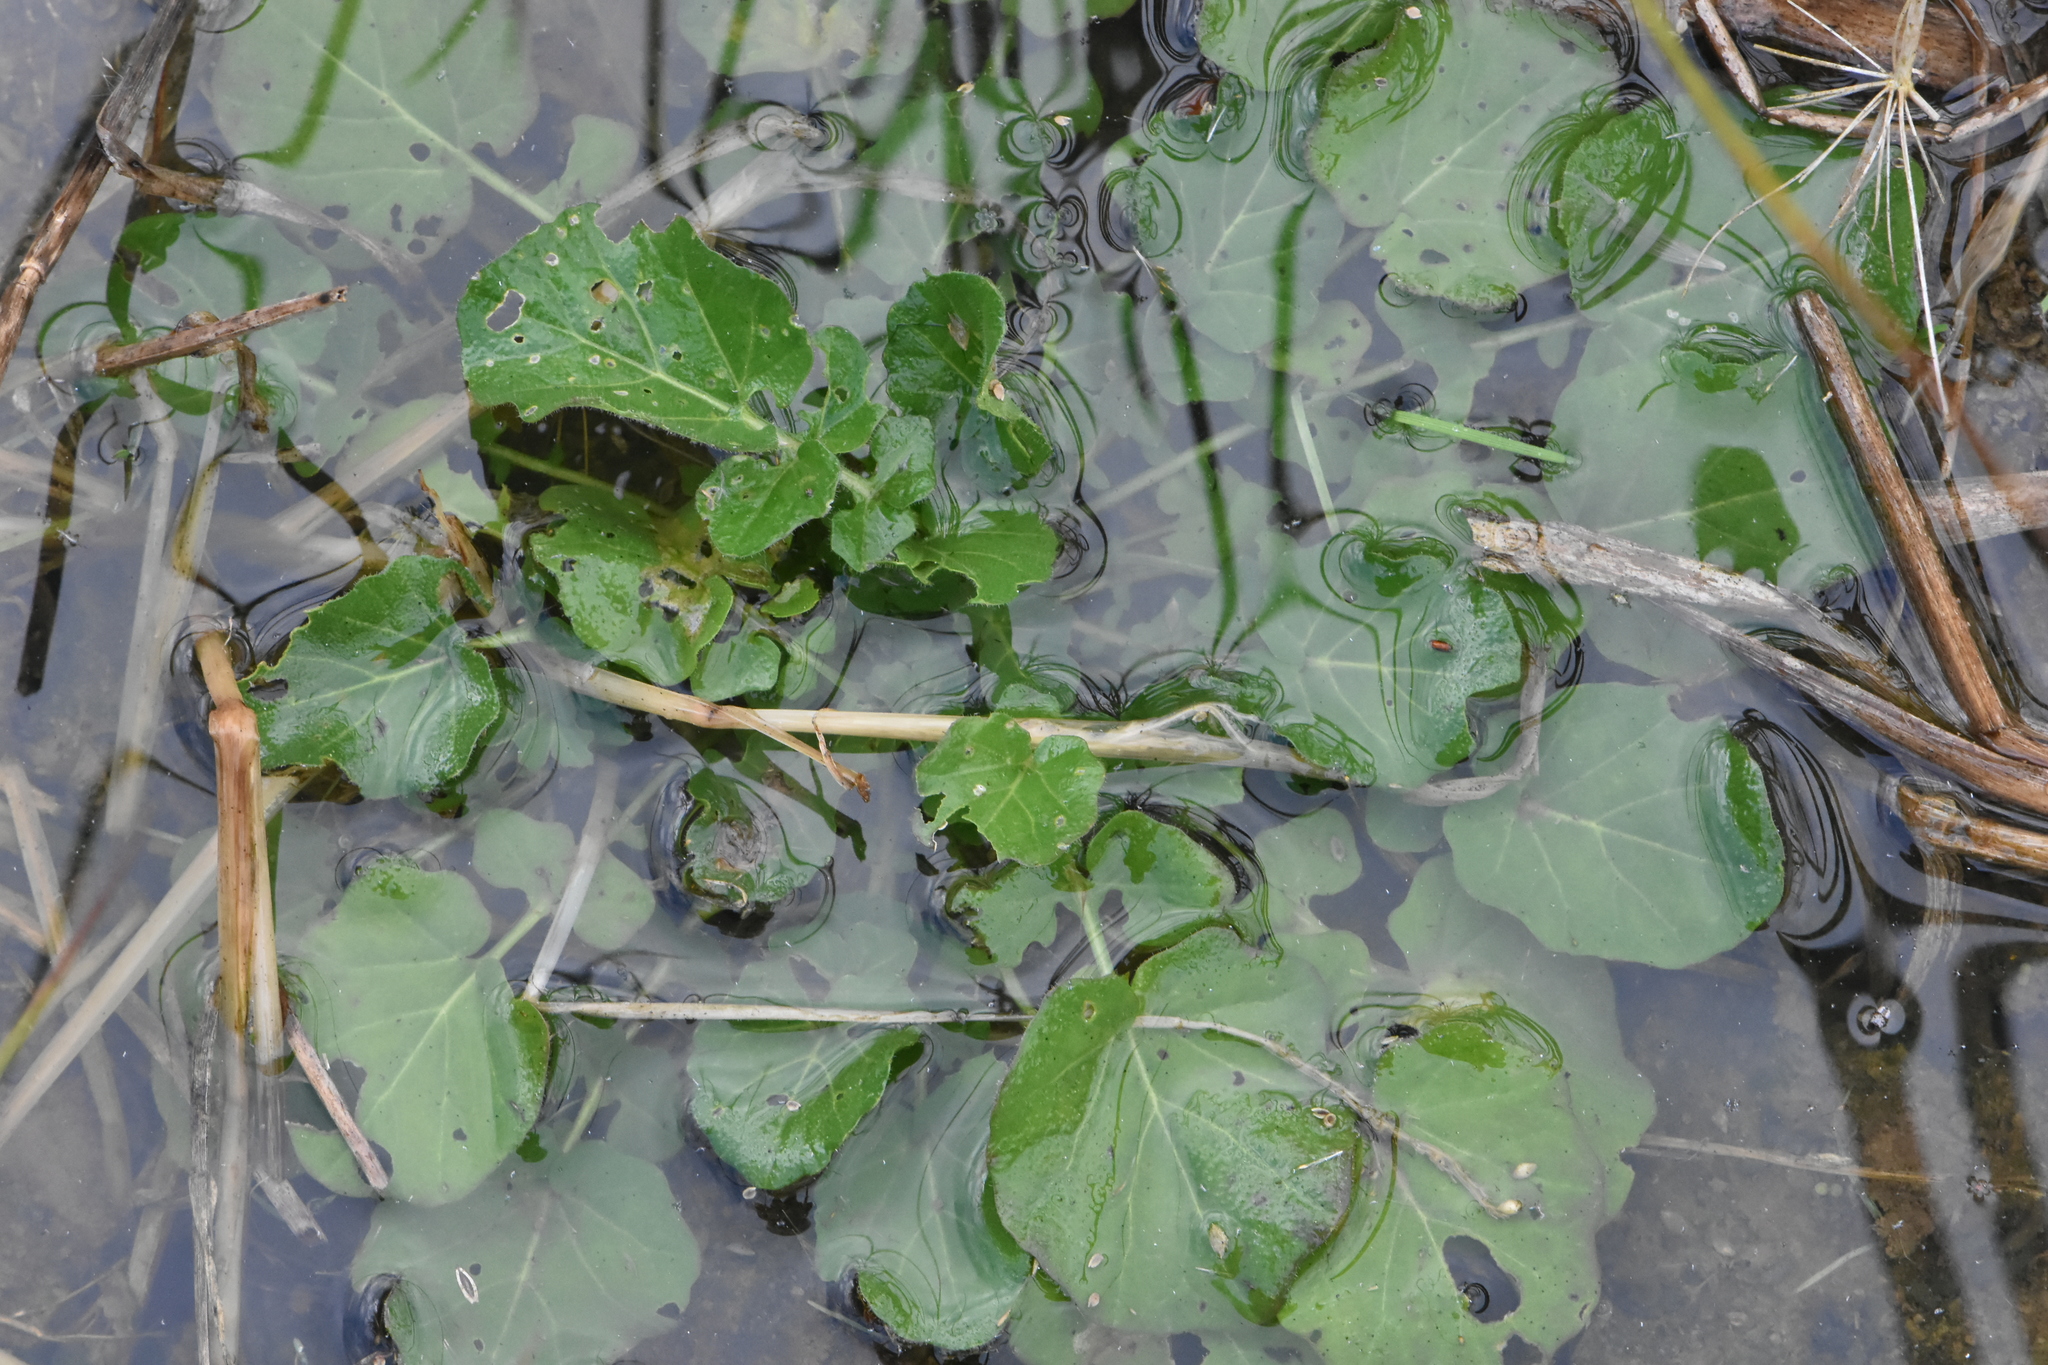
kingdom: Plantae
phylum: Tracheophyta
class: Magnoliopsida
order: Brassicales
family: Brassicaceae
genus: Barbarea
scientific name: Barbarea vulgaris
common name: Cressy-greens
